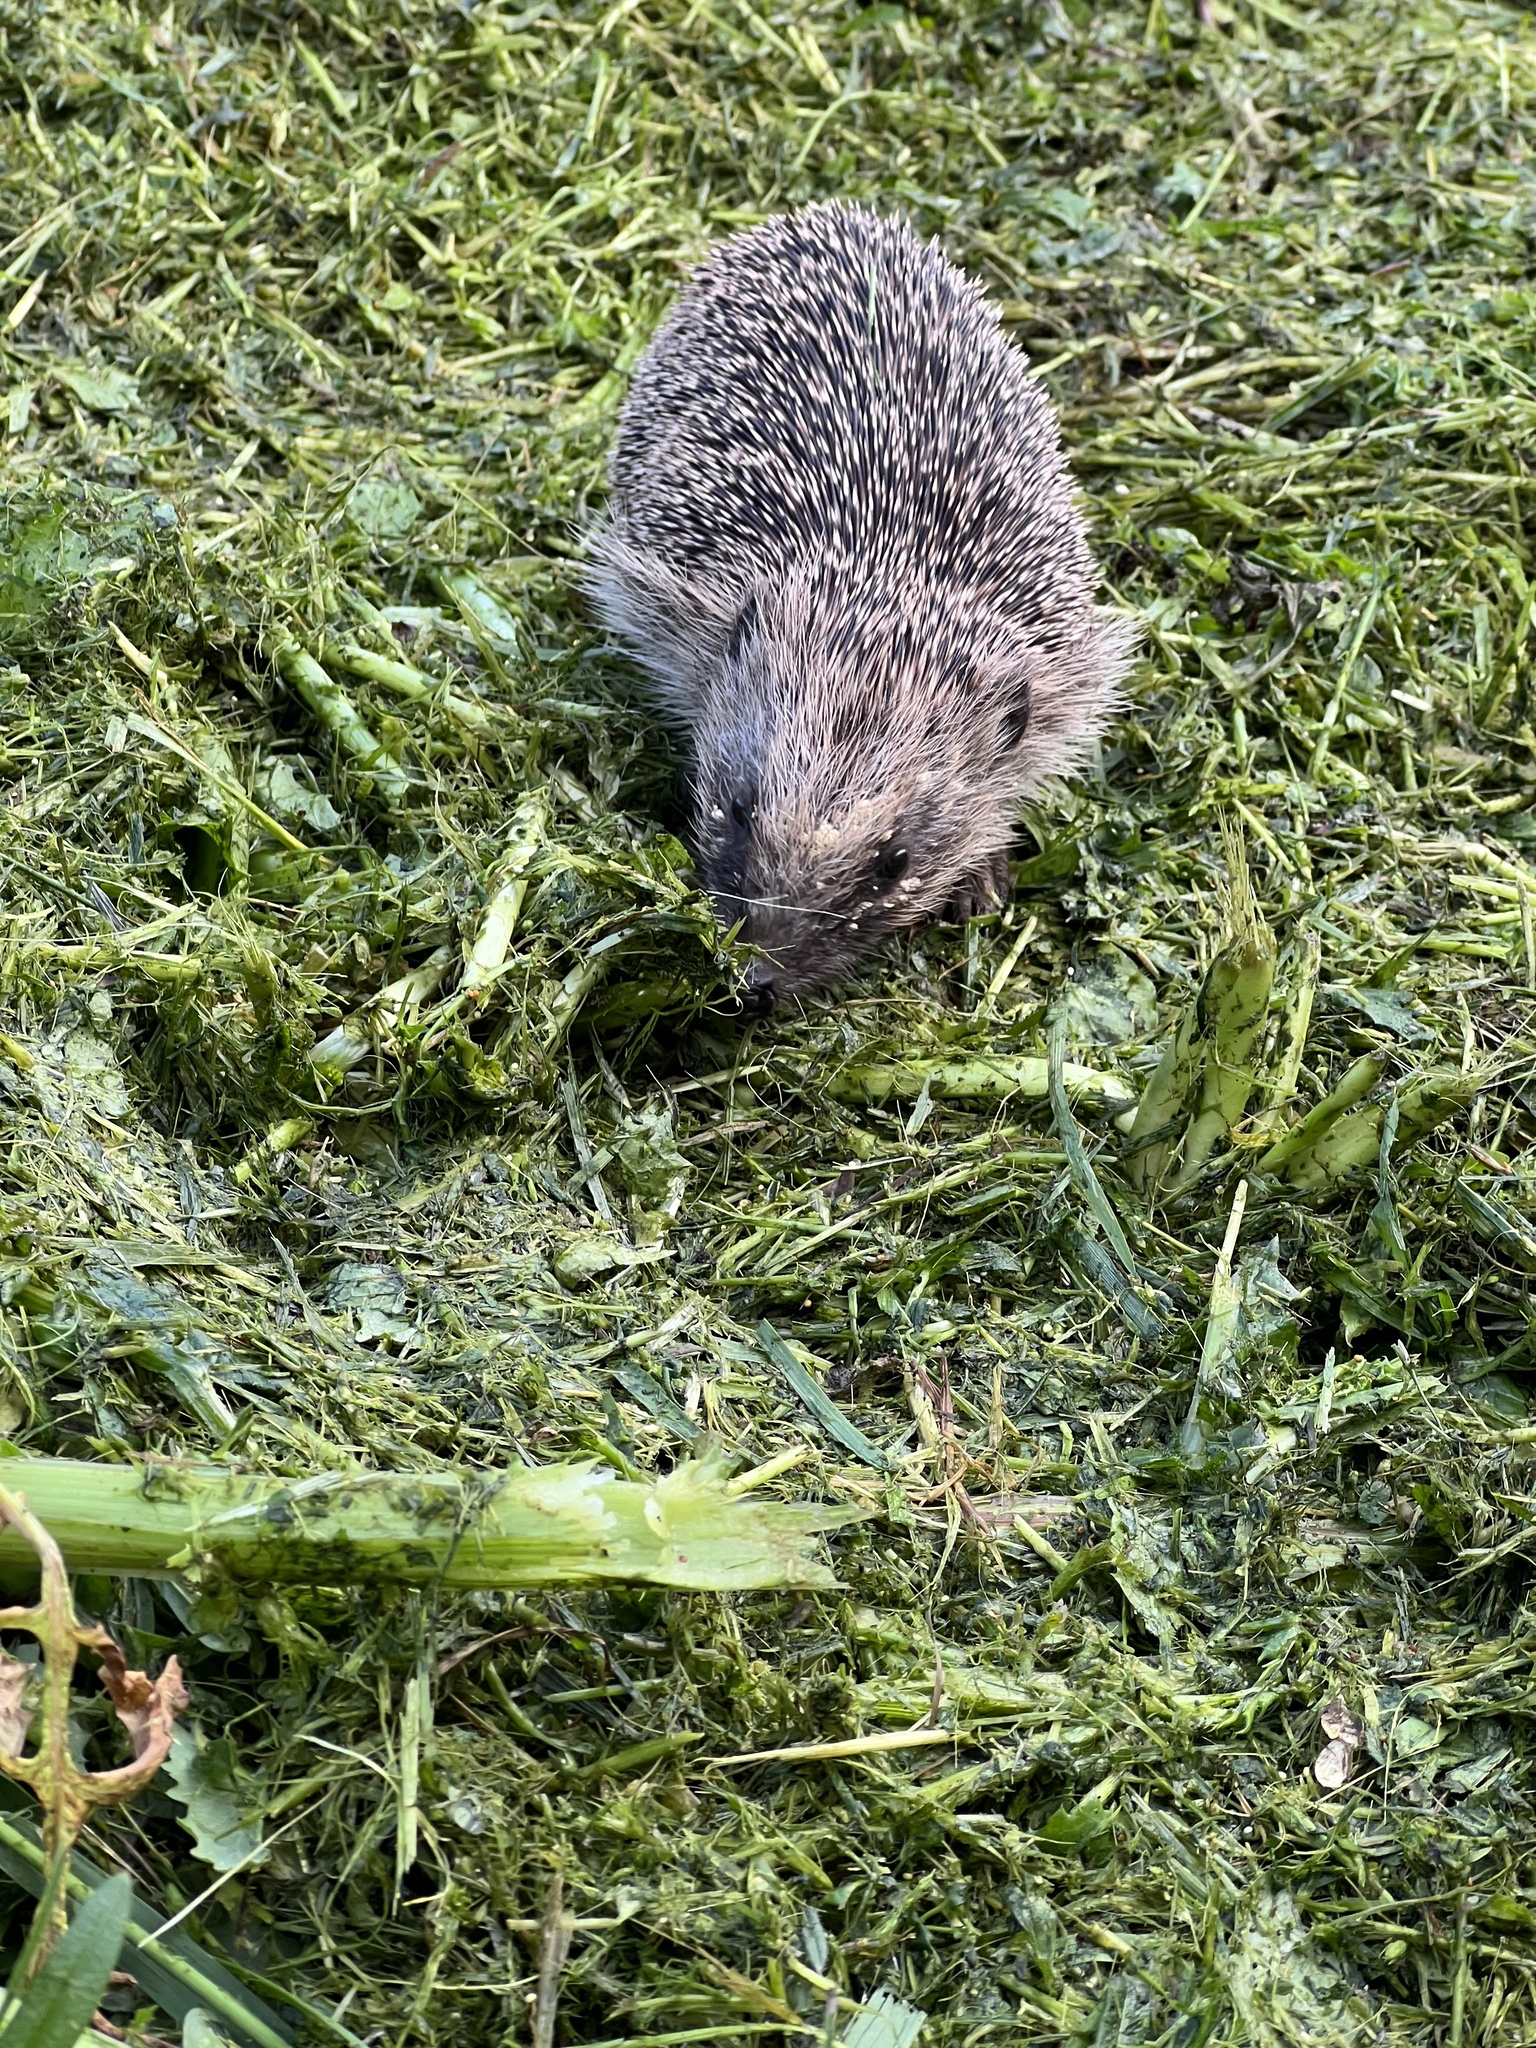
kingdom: Animalia
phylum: Chordata
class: Mammalia
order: Erinaceomorpha
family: Erinaceidae
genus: Erinaceus
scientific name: Erinaceus europaeus
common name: West european hedgehog
